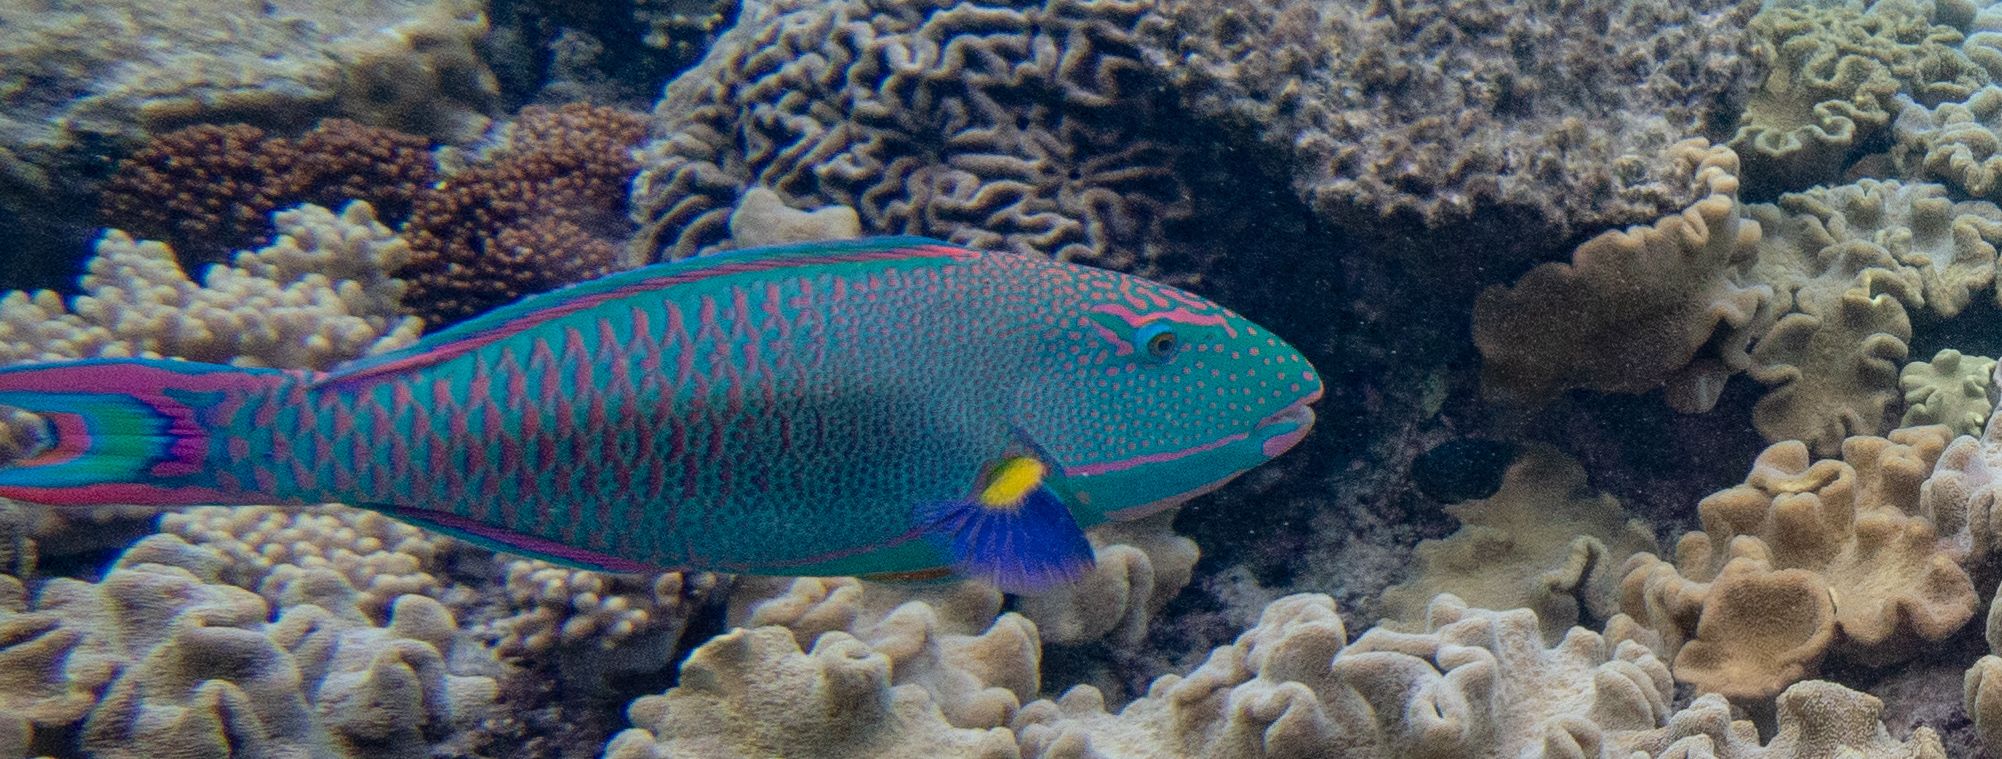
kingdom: Animalia
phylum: Chordata
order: Perciformes
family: Scaridae
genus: Cetoscarus
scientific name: Cetoscarus ocellatus
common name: Bicolor parrotfish
